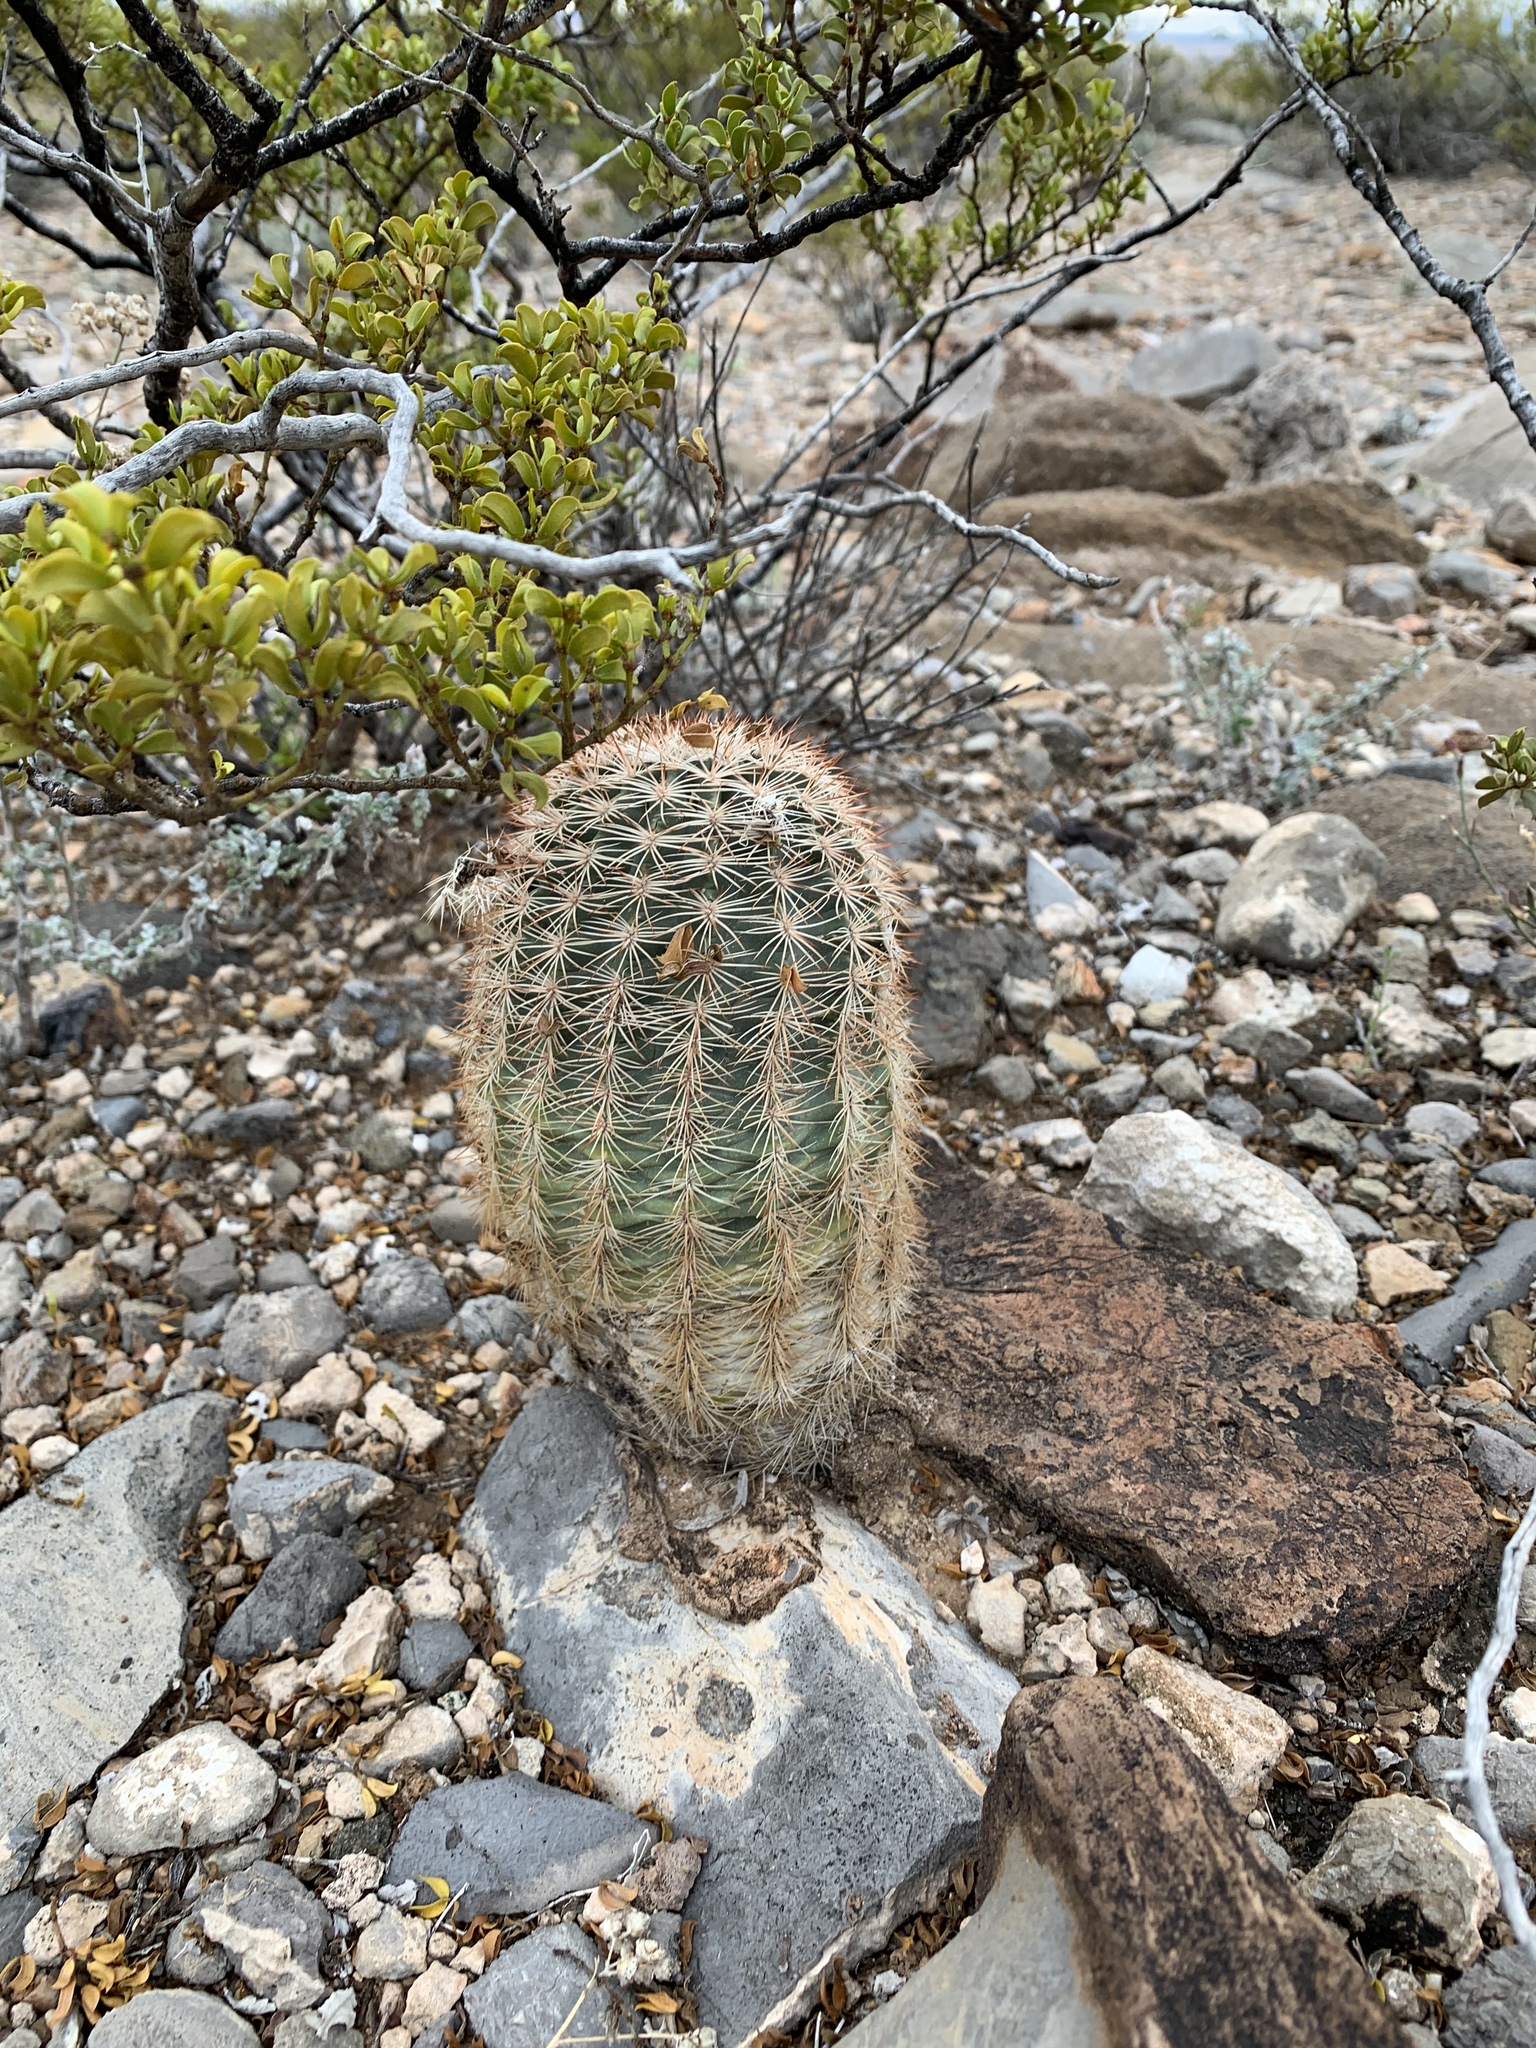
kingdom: Plantae
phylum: Tracheophyta
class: Magnoliopsida
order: Caryophyllales
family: Cactaceae
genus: Echinocereus
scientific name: Echinocereus dasyacanthus
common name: Spiny hedgehog cactus
